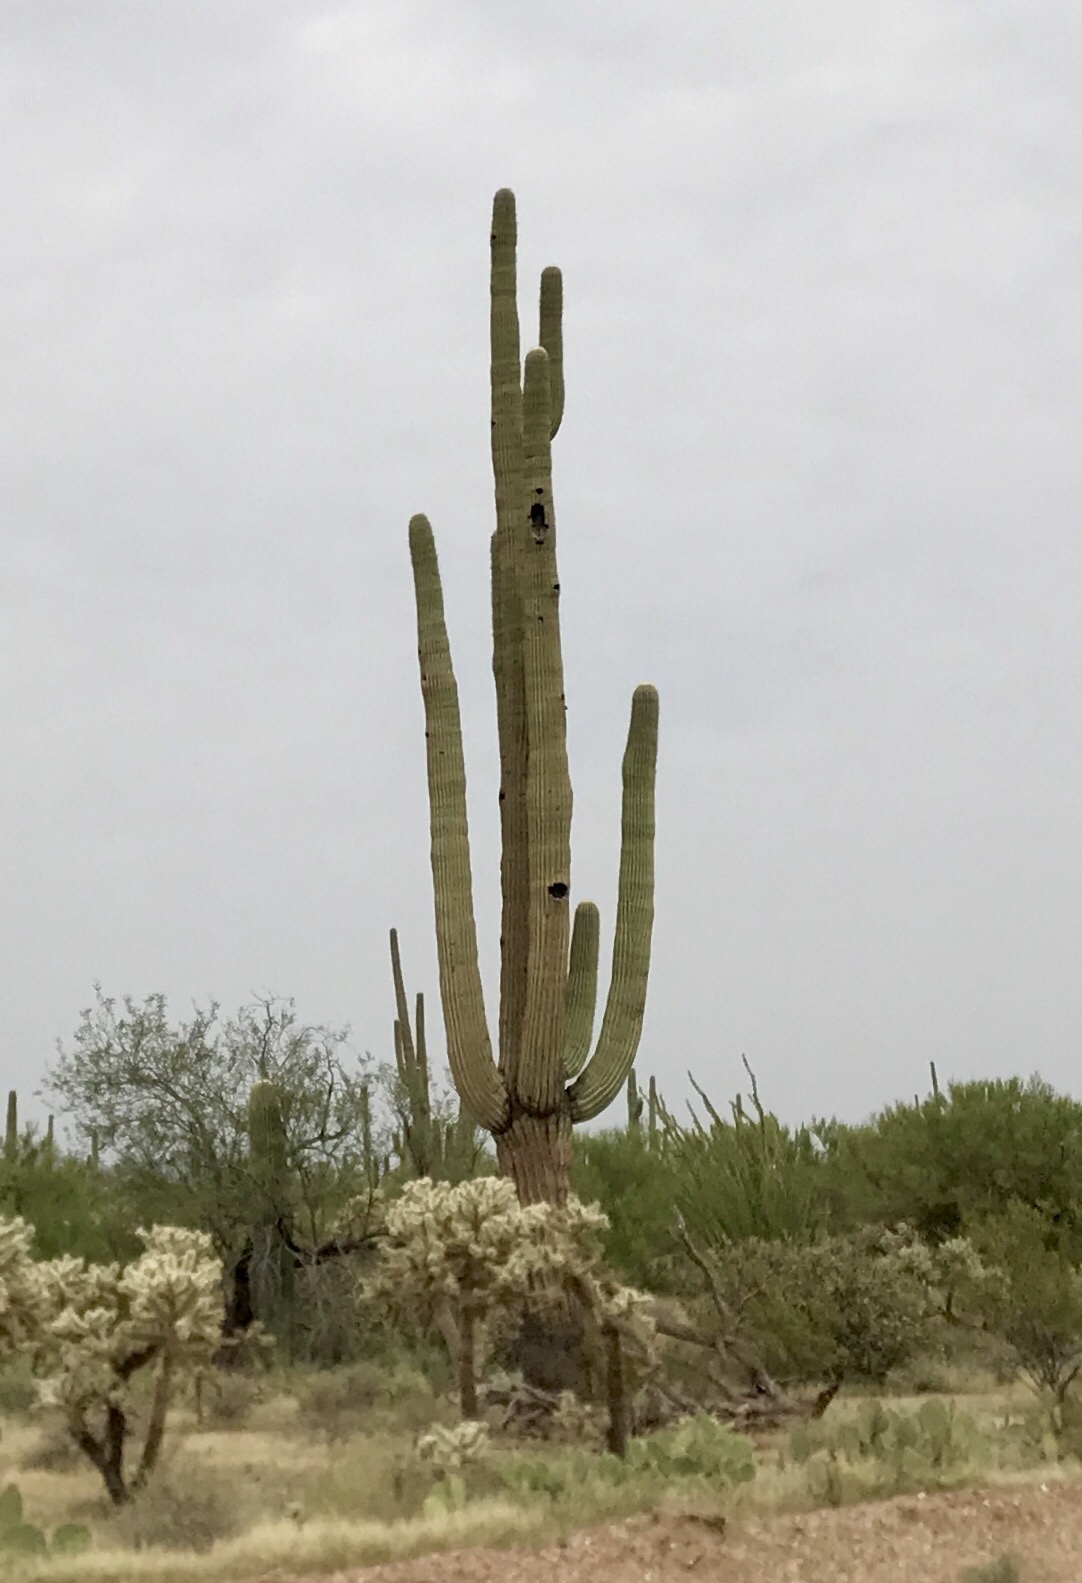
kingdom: Plantae
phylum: Tracheophyta
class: Magnoliopsida
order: Caryophyllales
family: Cactaceae
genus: Carnegiea
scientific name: Carnegiea gigantea
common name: Saguaro
